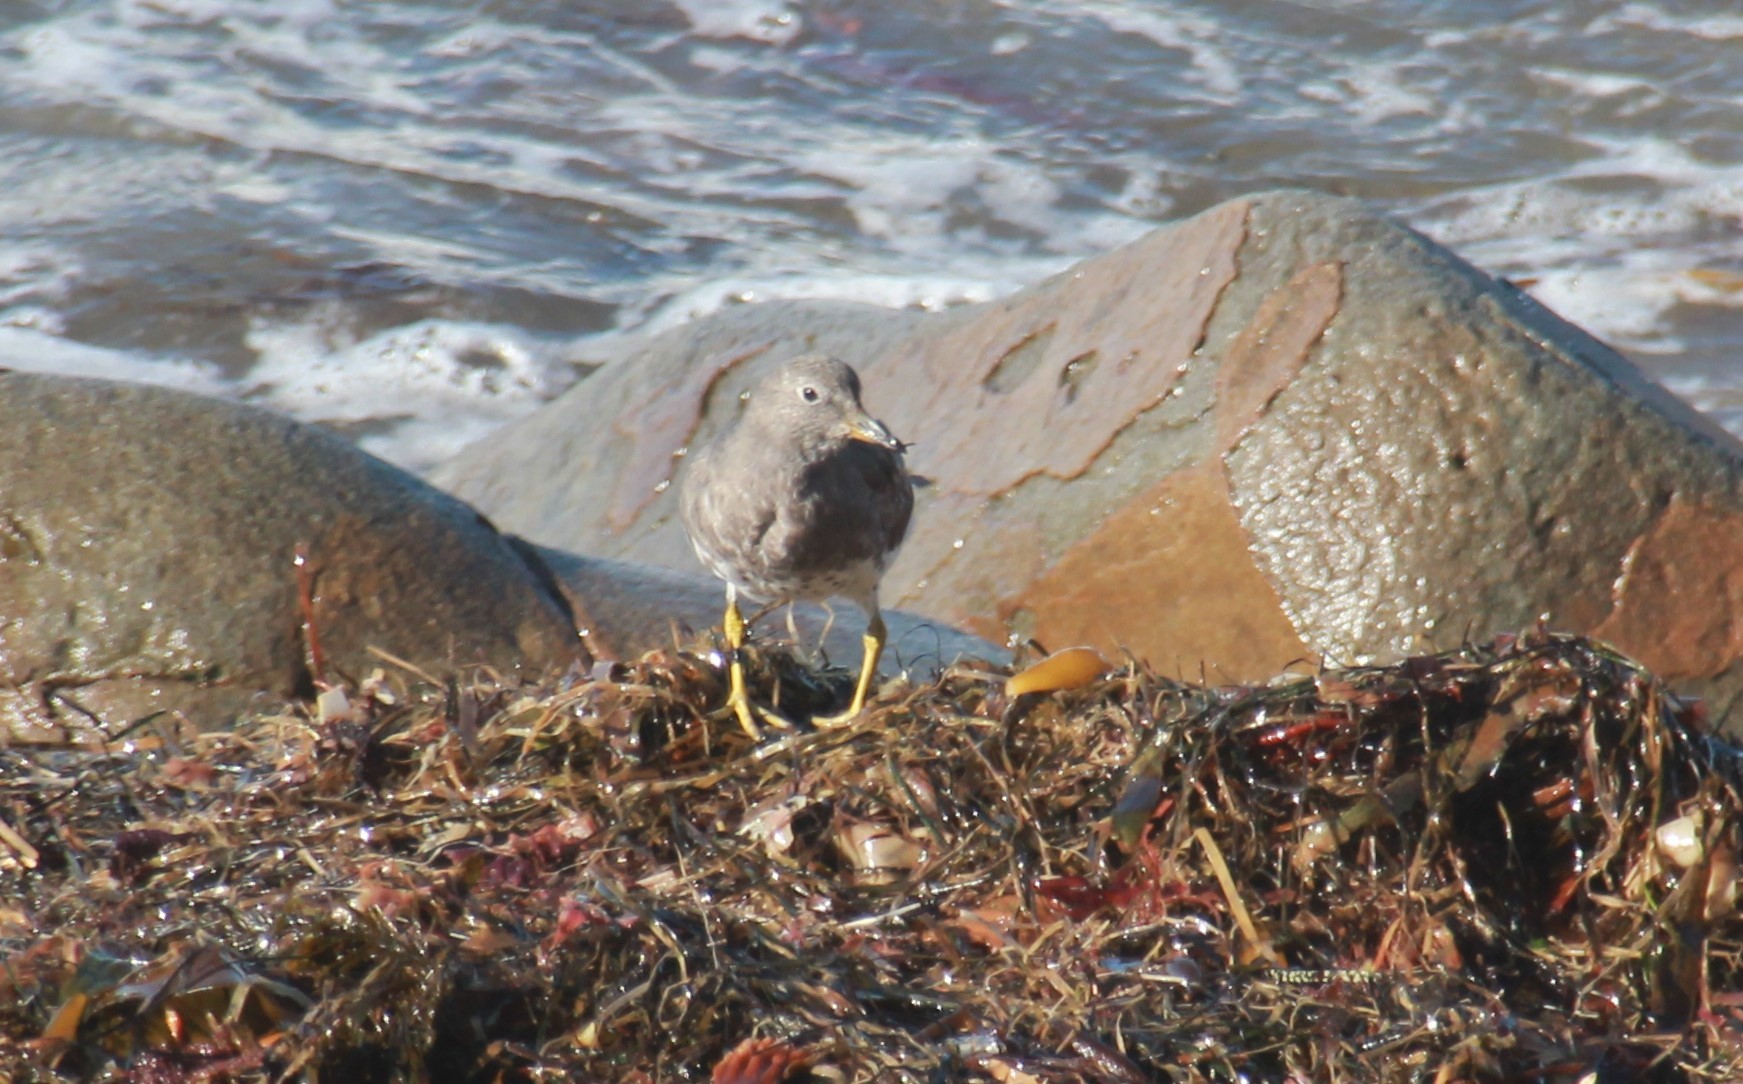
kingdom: Animalia
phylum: Chordata
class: Aves
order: Charadriiformes
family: Scolopacidae
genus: Calidris
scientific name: Calidris virgata
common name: Surfbird
